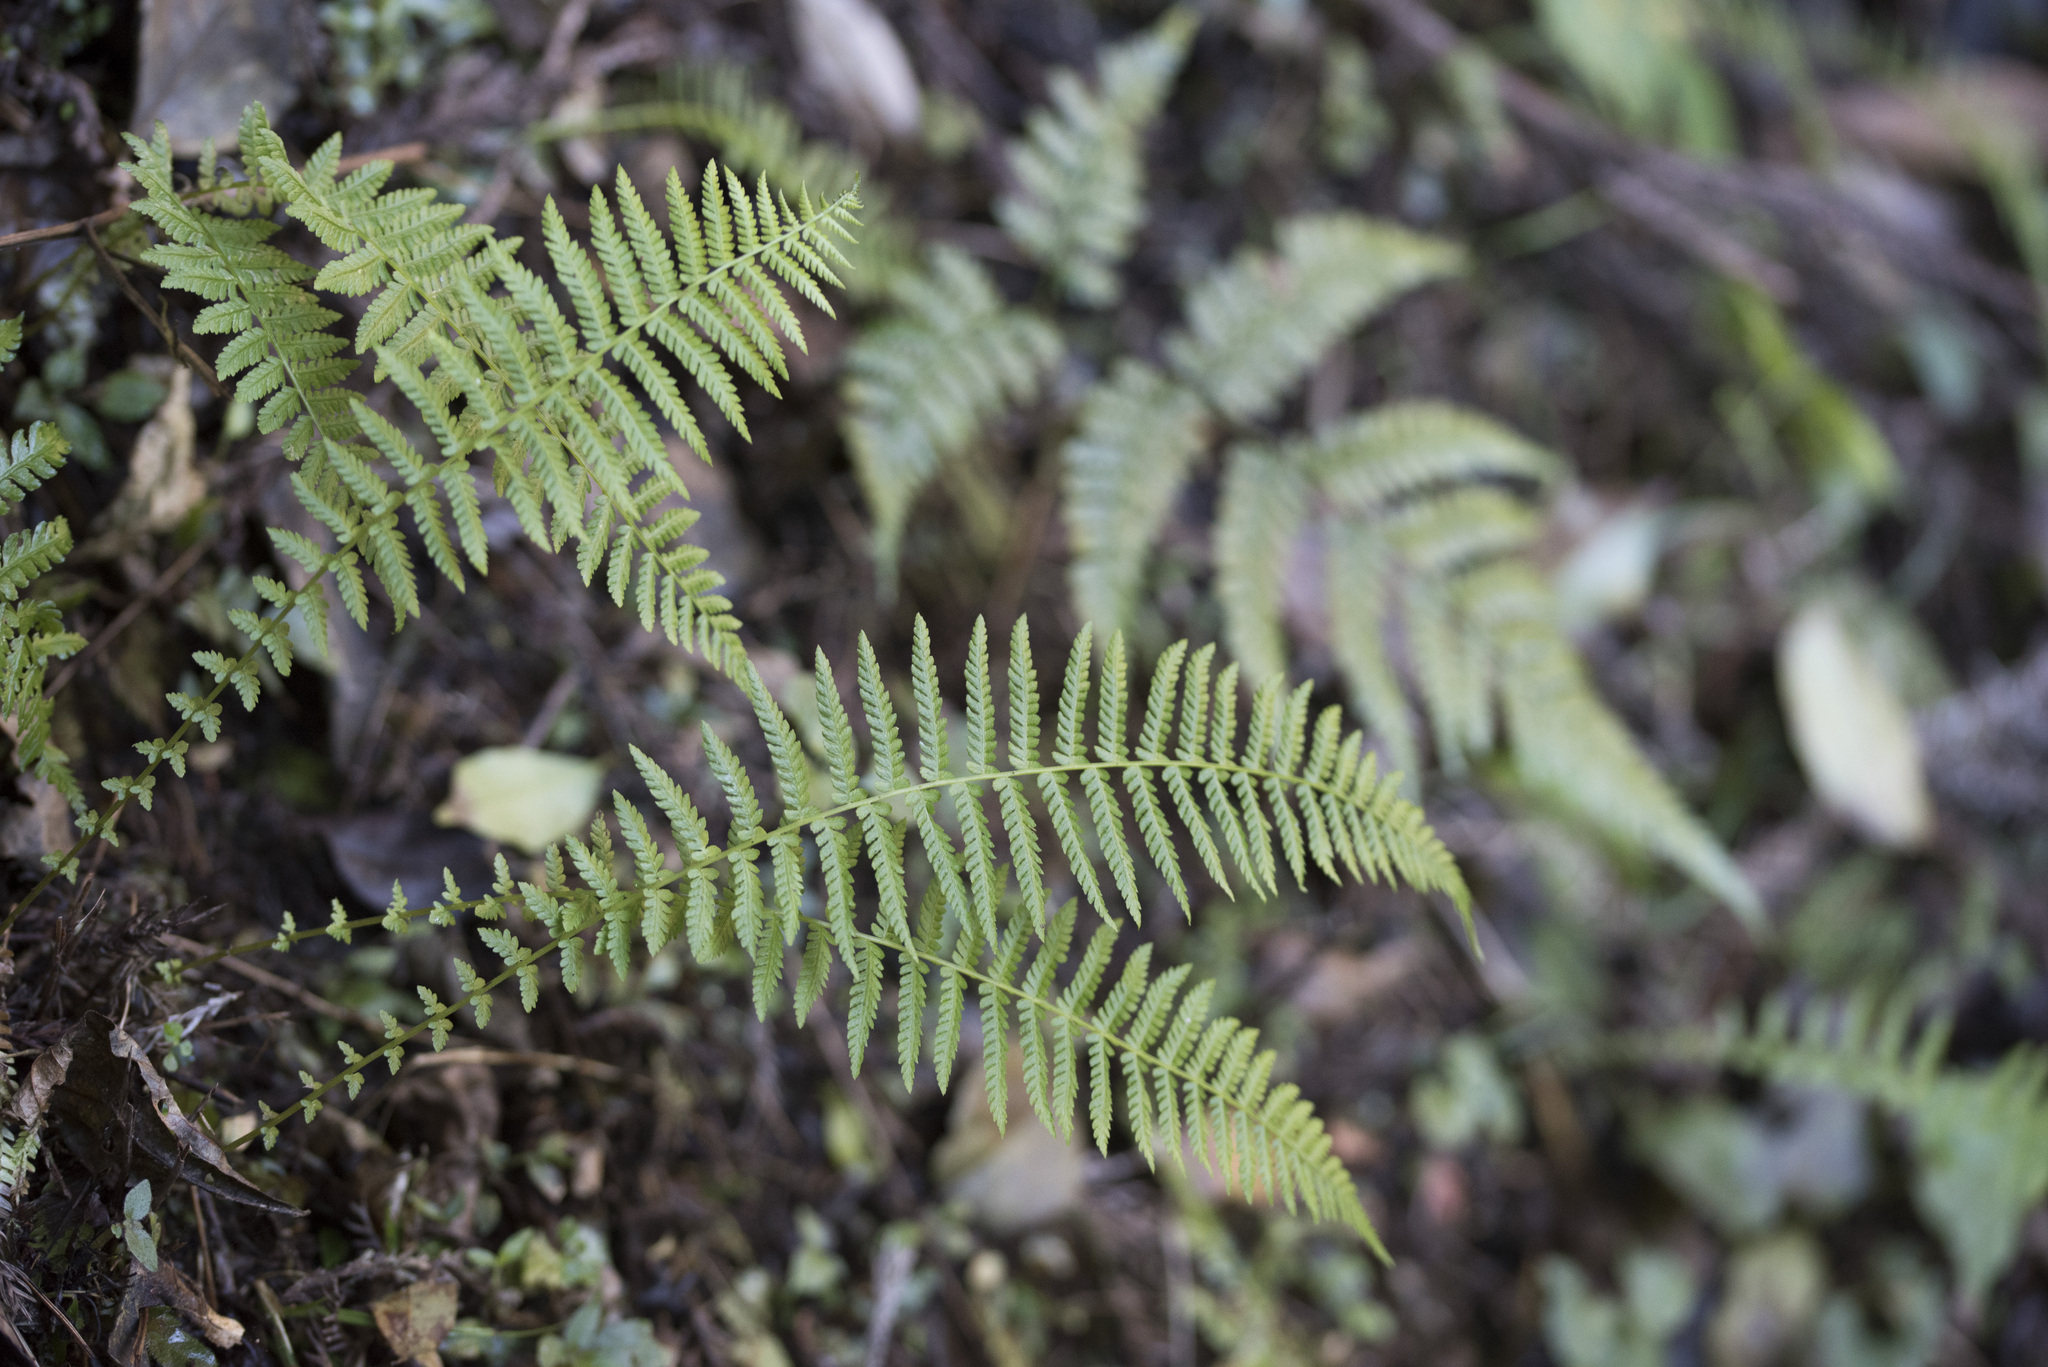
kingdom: Plantae
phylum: Tracheophyta
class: Polypodiopsida
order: Polypodiales
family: Thelypteridaceae
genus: Amauropelta
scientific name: Amauropelta beddomei
